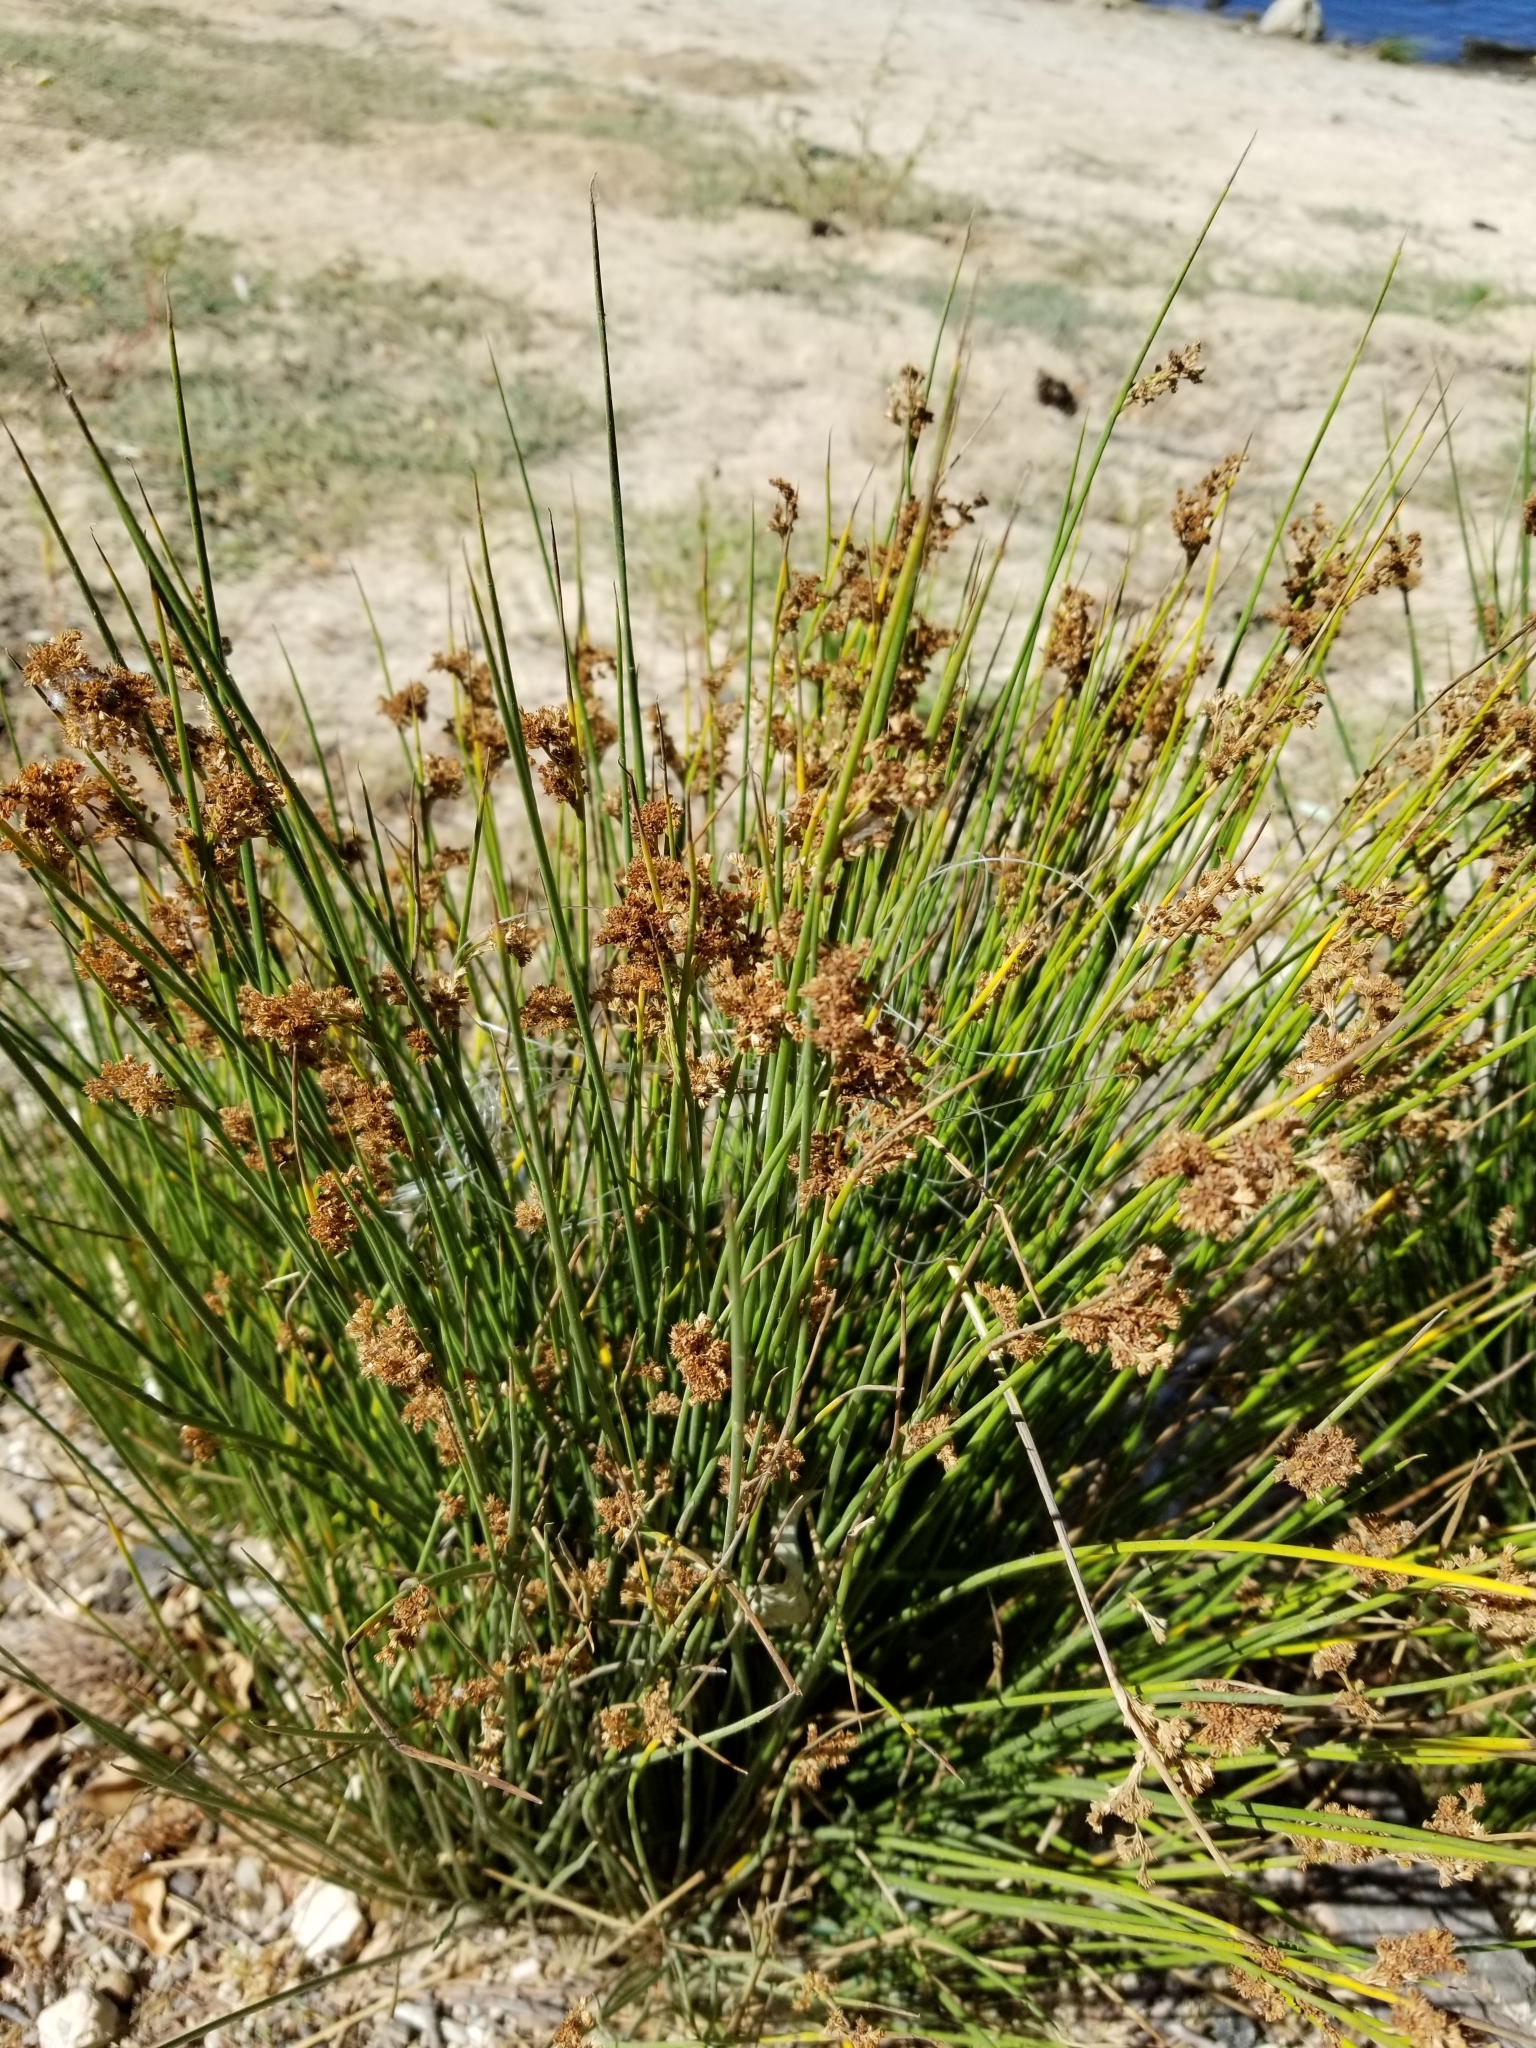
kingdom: Plantae
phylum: Tracheophyta
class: Liliopsida
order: Poales
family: Juncaceae
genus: Juncus
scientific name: Juncus effusus
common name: Soft rush
